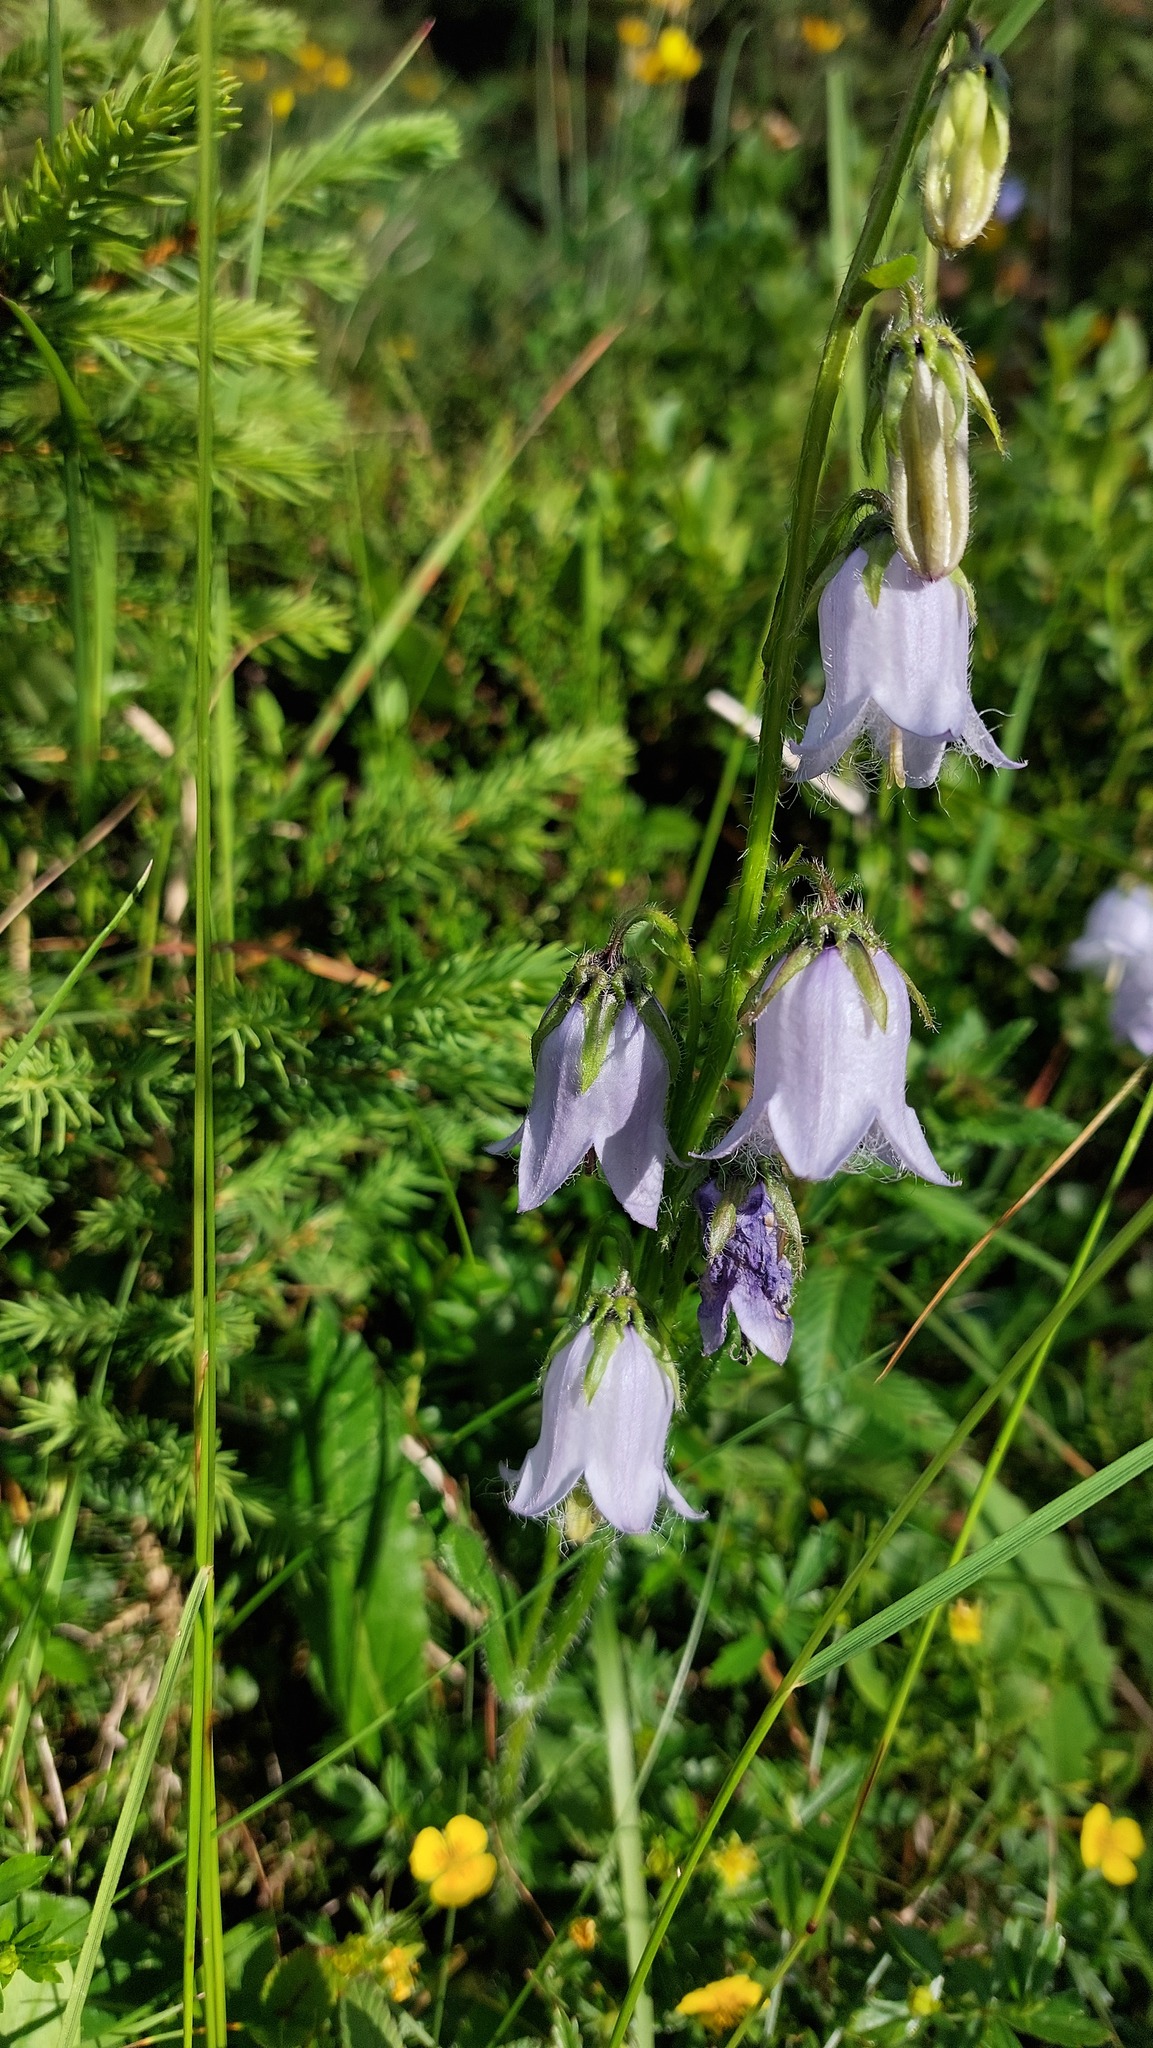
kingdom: Plantae
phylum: Tracheophyta
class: Magnoliopsida
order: Asterales
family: Campanulaceae
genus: Campanula
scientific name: Campanula barbata
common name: Bearded bellflower
